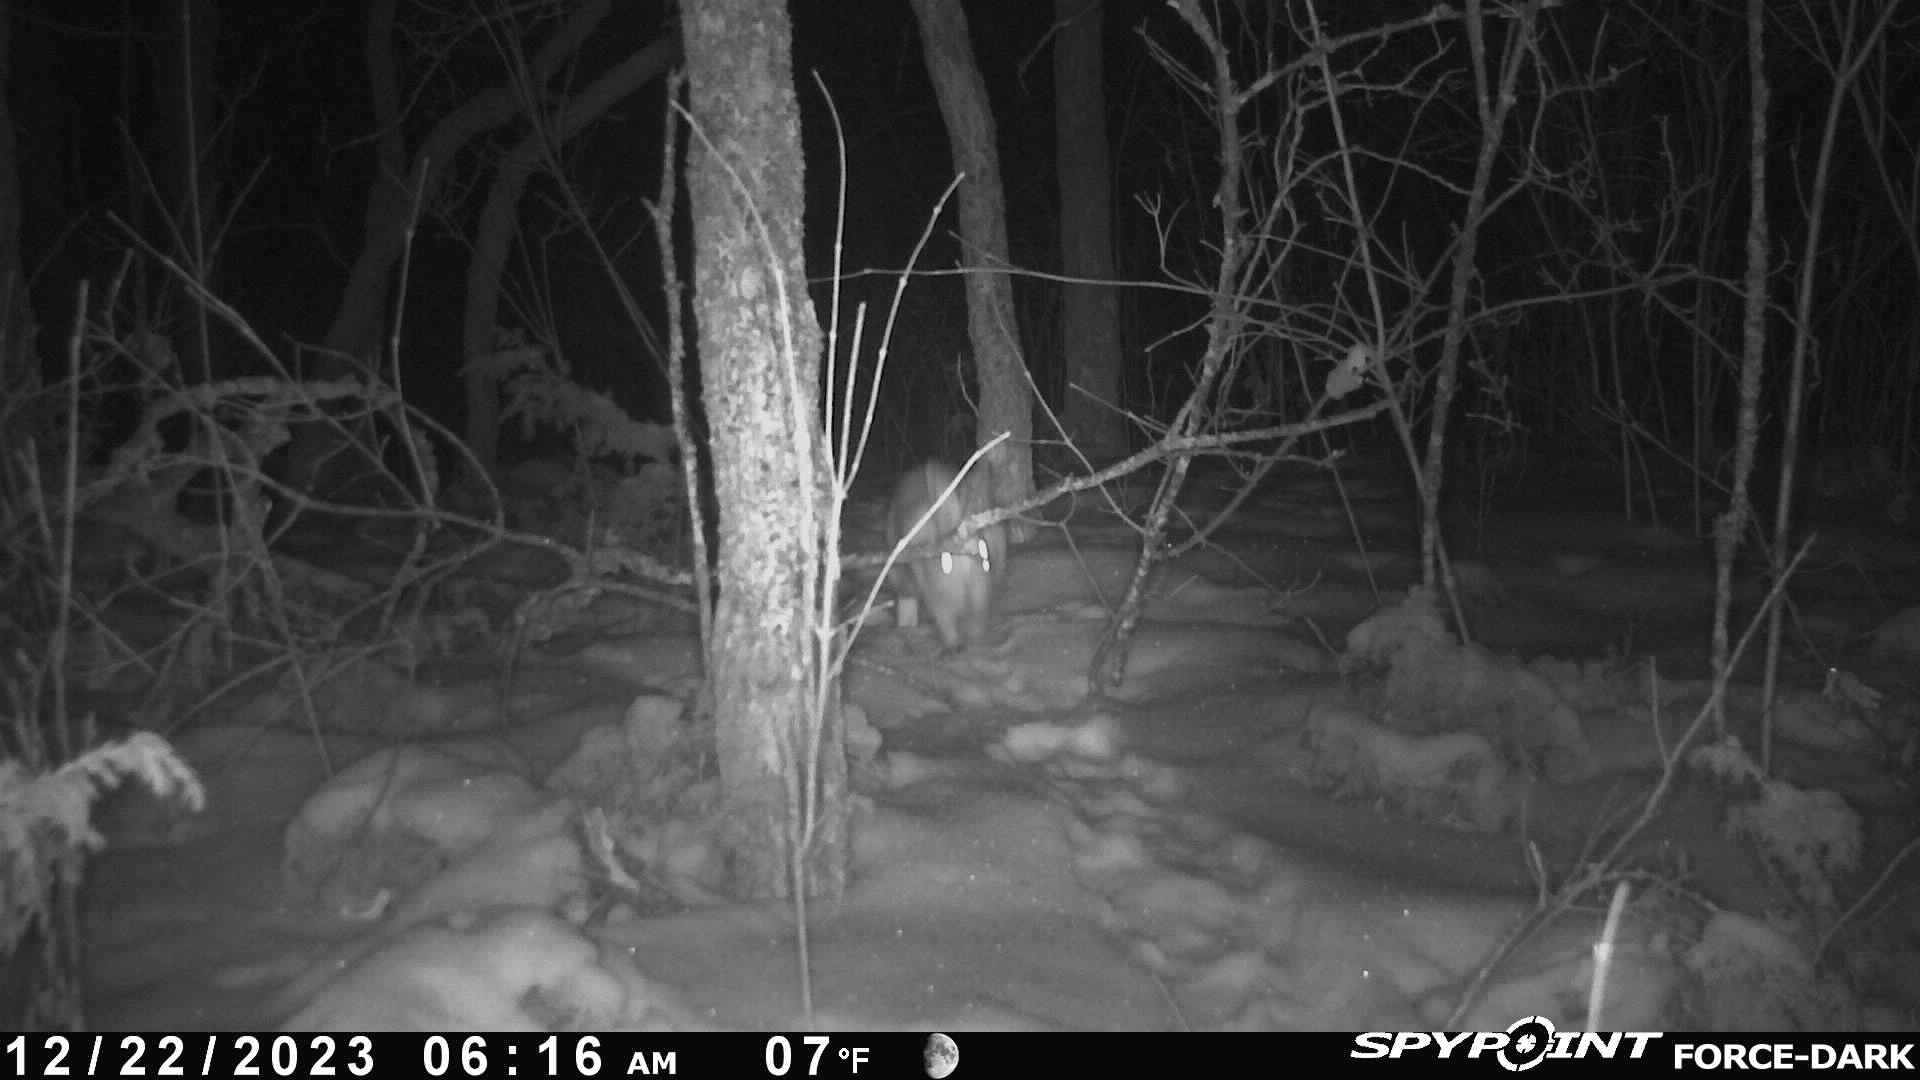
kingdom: Animalia
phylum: Chordata
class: Mammalia
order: Lagomorpha
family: Leporidae
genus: Lepus
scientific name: Lepus americanus
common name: Snowshoe hare
